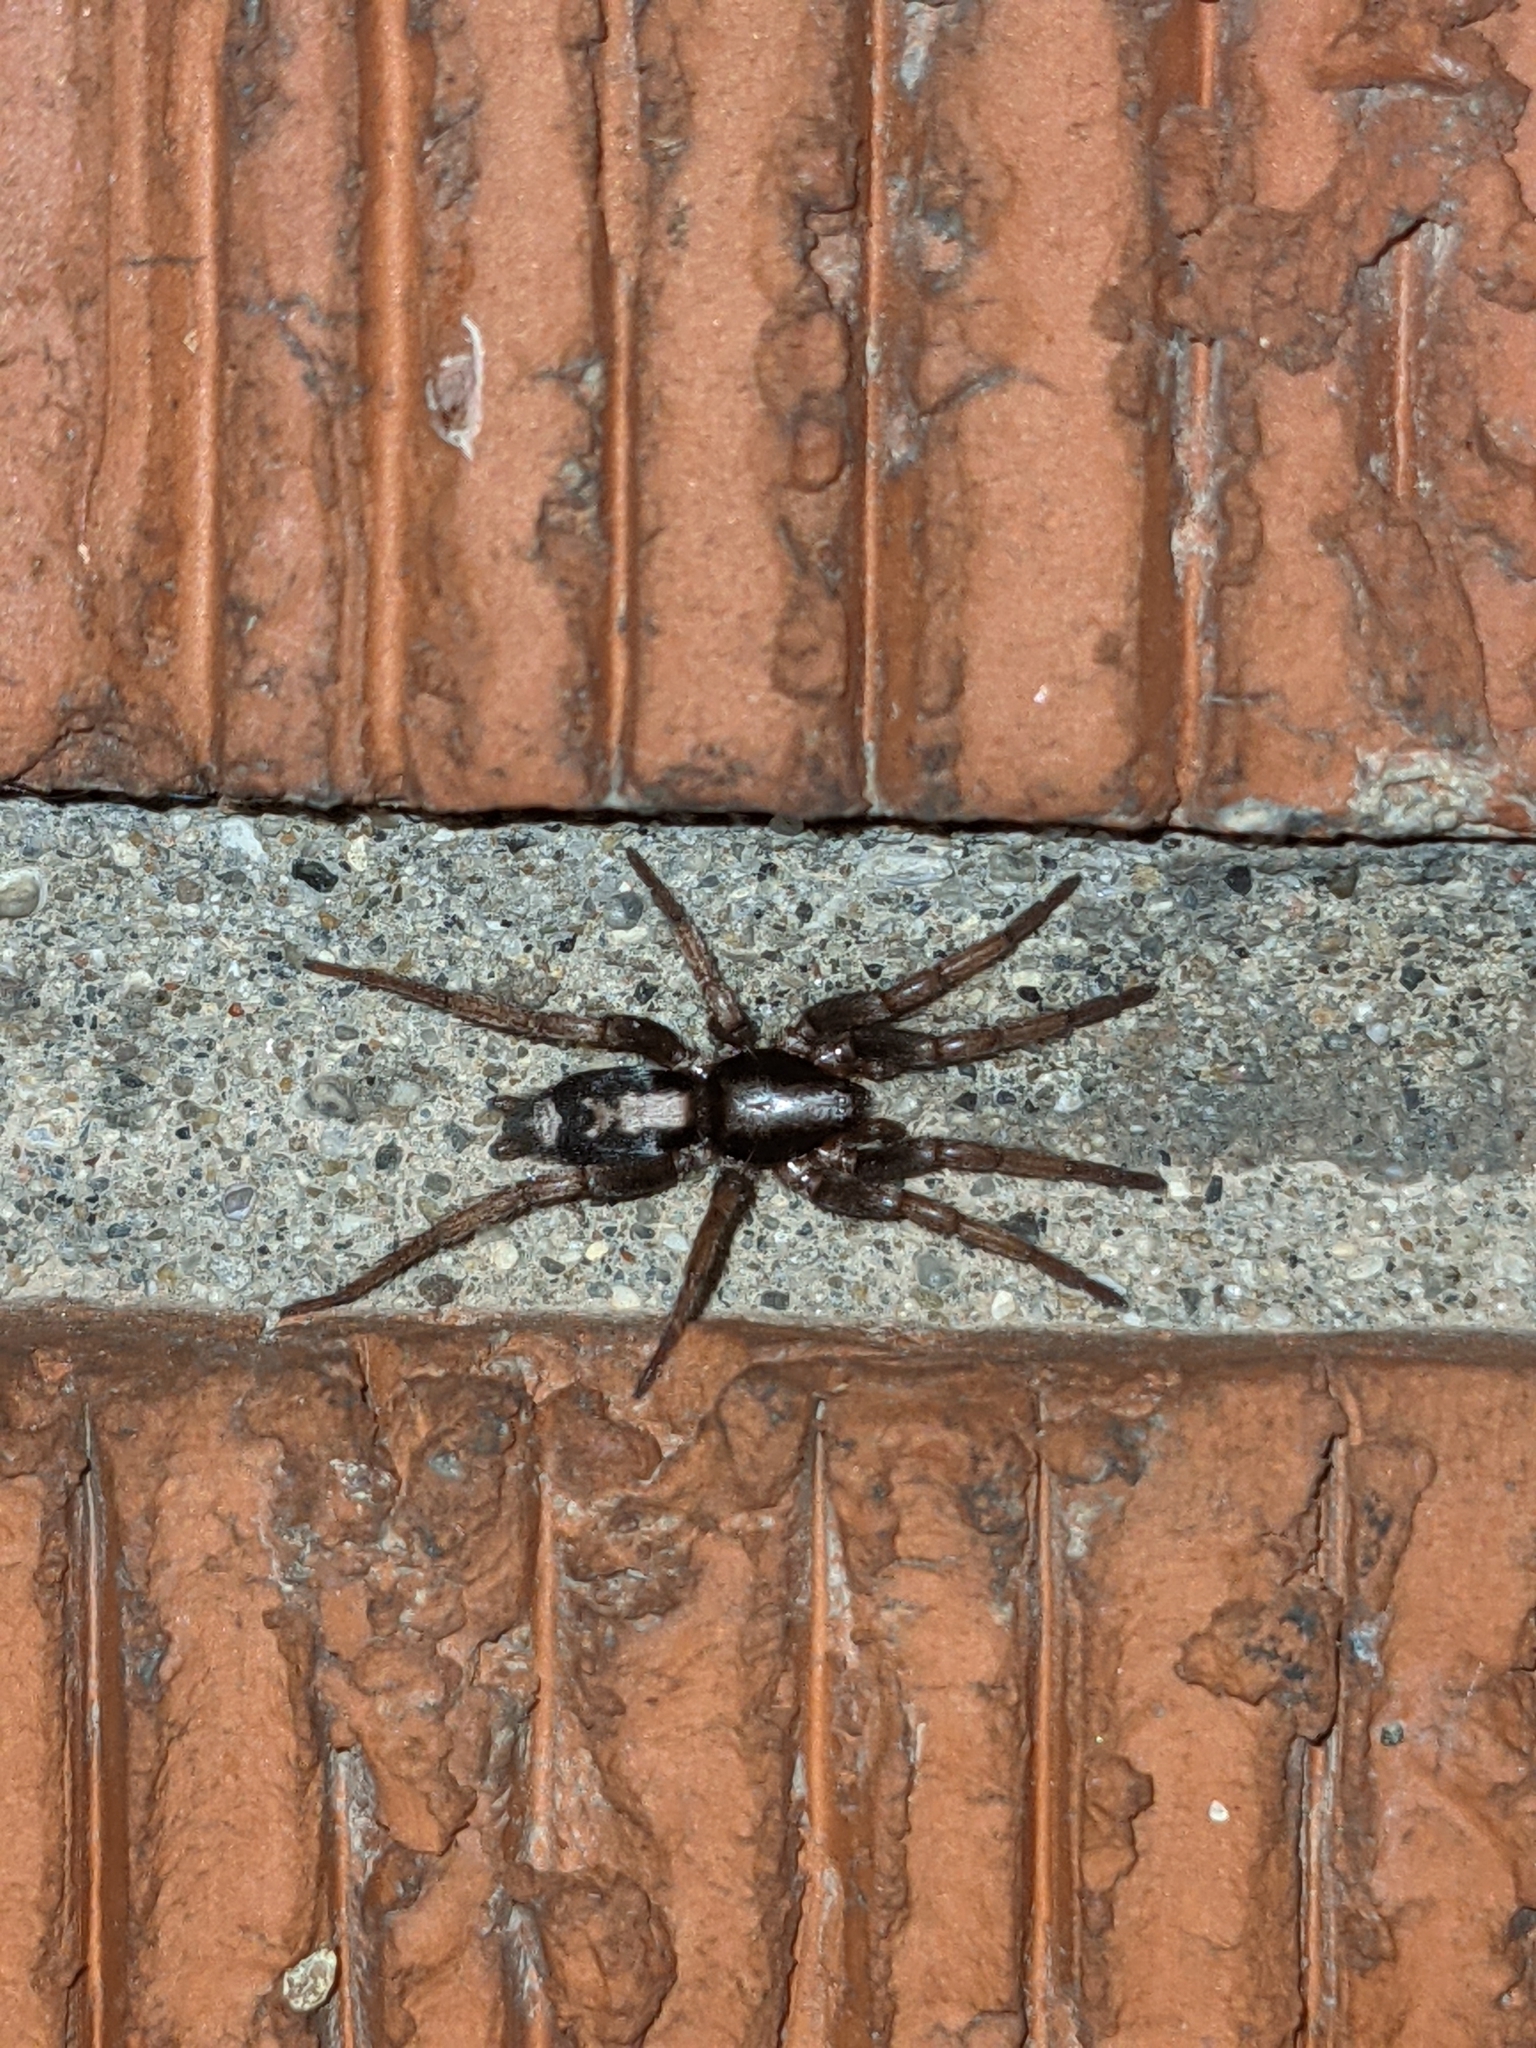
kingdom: Animalia
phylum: Arthropoda
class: Arachnida
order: Araneae
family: Gnaphosidae
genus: Herpyllus
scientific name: Herpyllus ecclesiasticus
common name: Eastern parson spider
